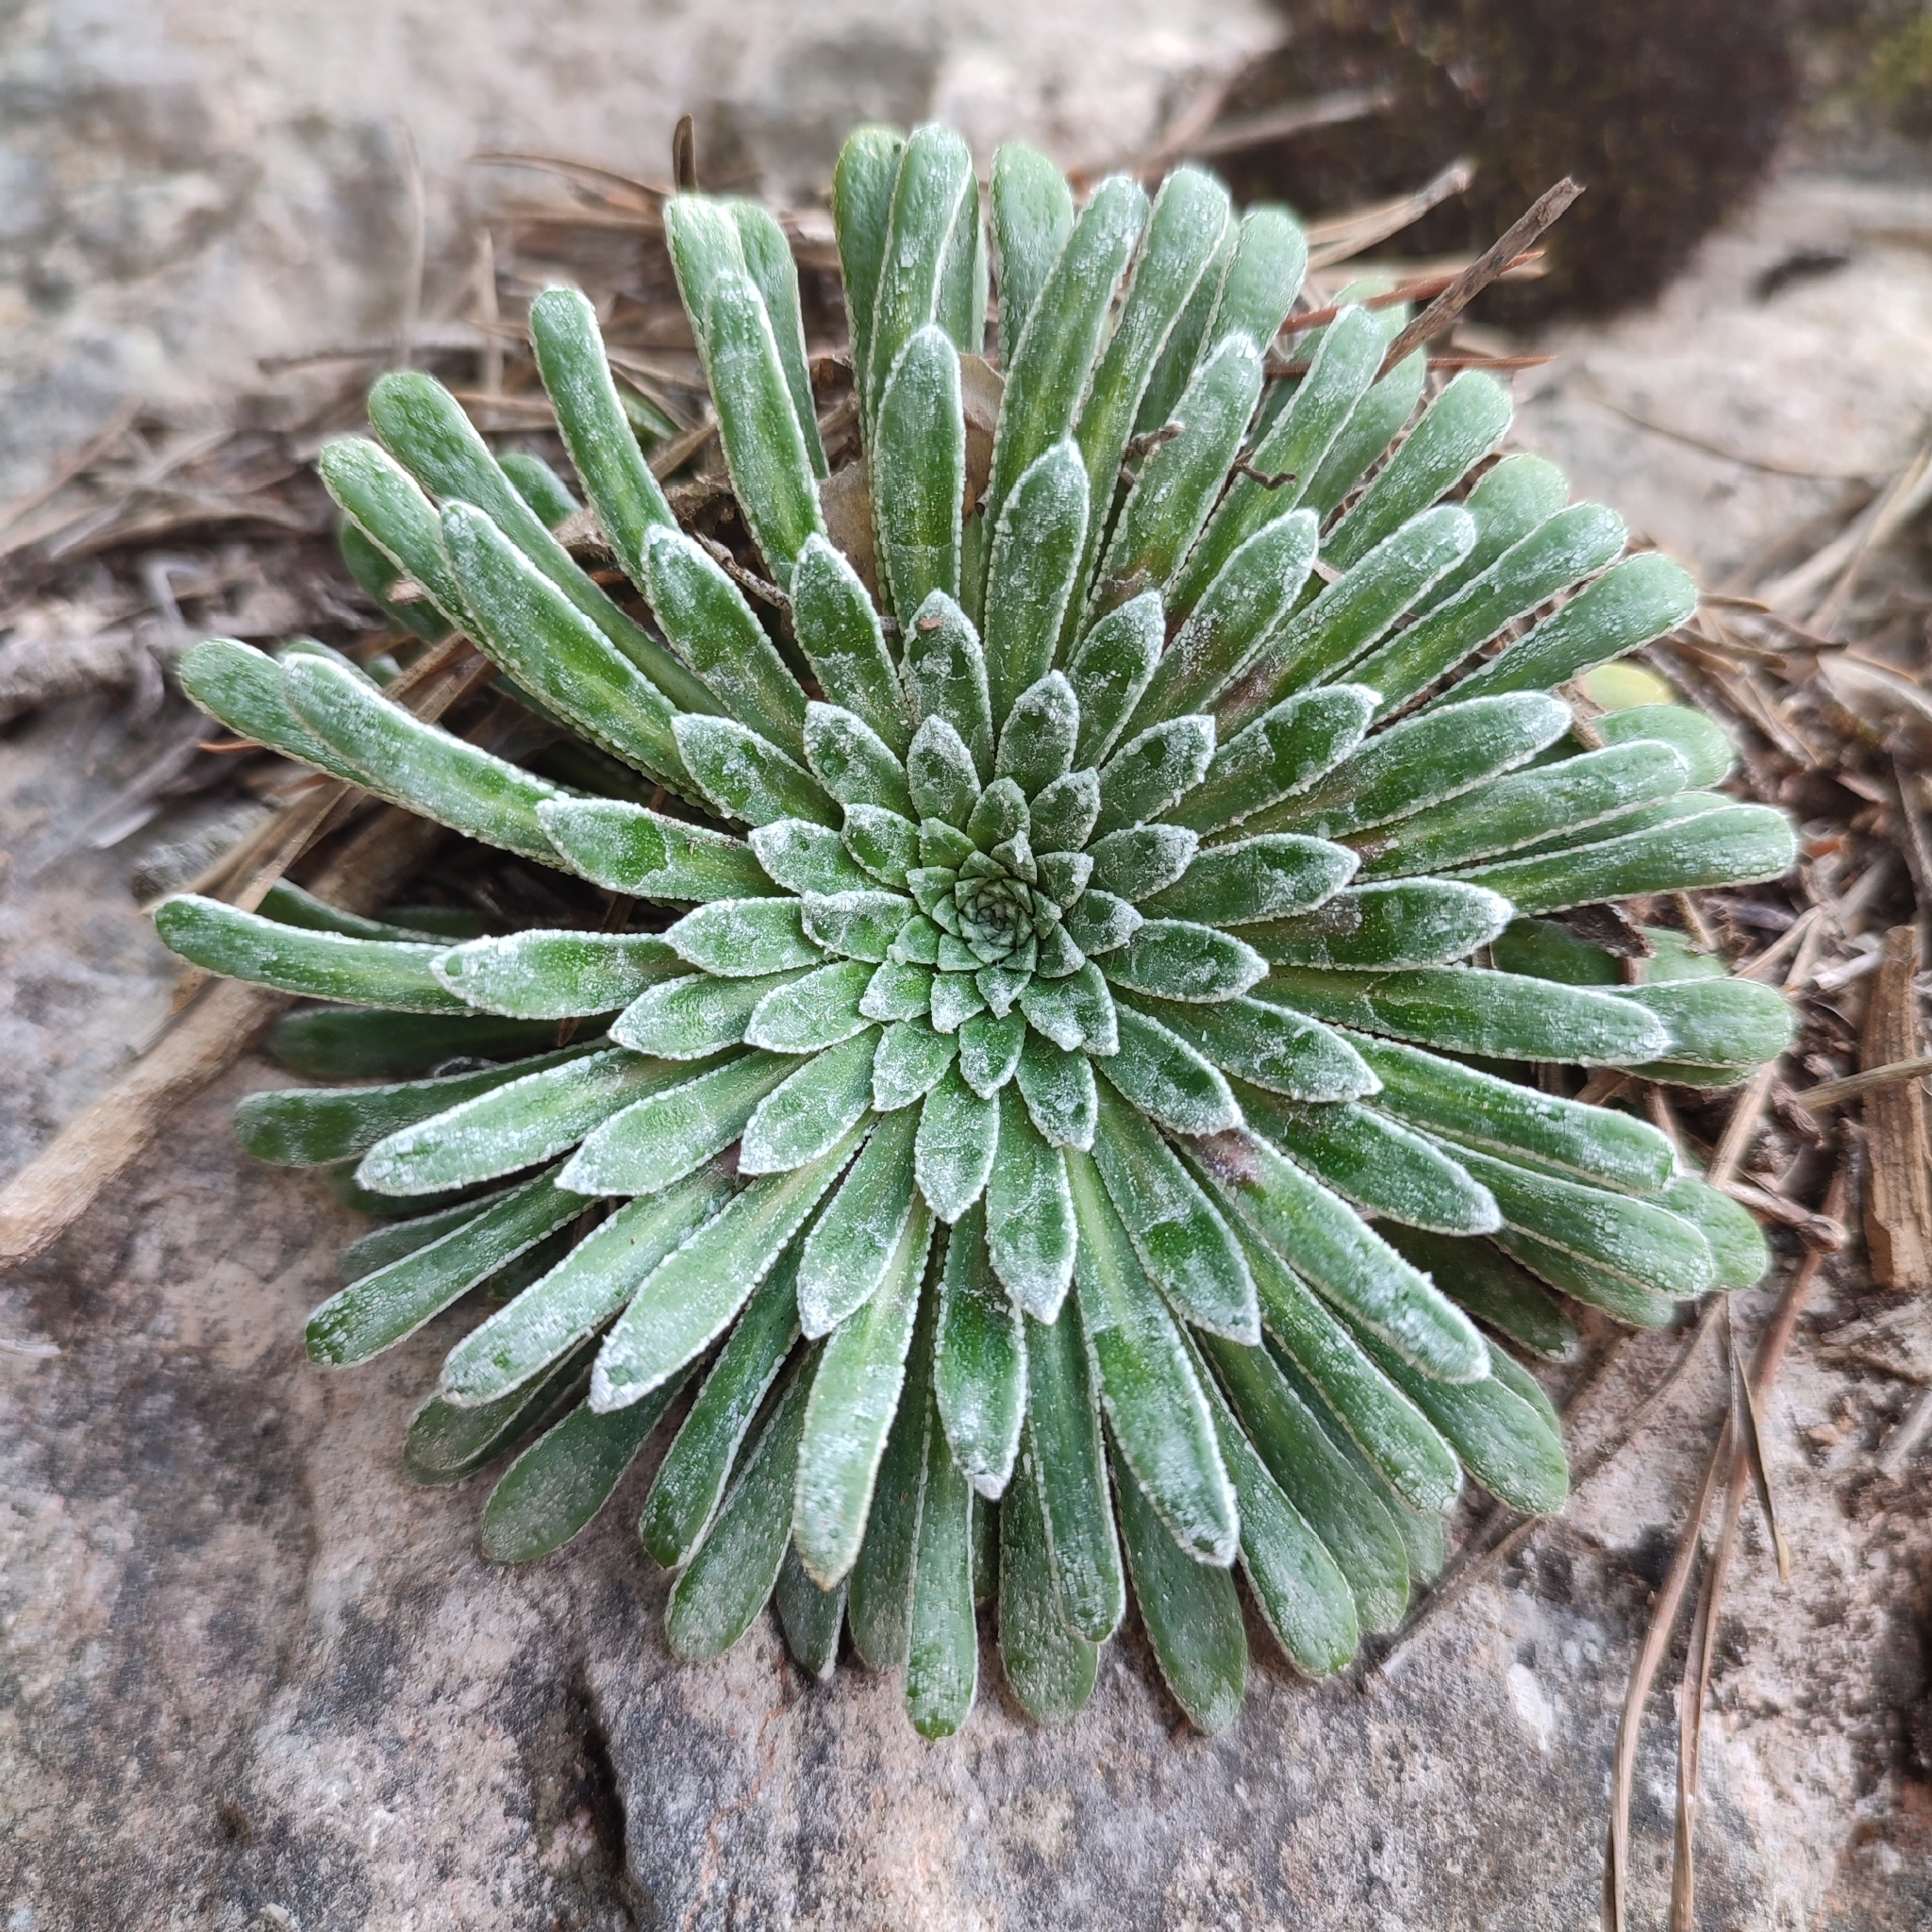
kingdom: Plantae
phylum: Tracheophyta
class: Magnoliopsida
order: Saxifragales
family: Saxifragaceae
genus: Saxifraga
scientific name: Saxifraga longifolia
